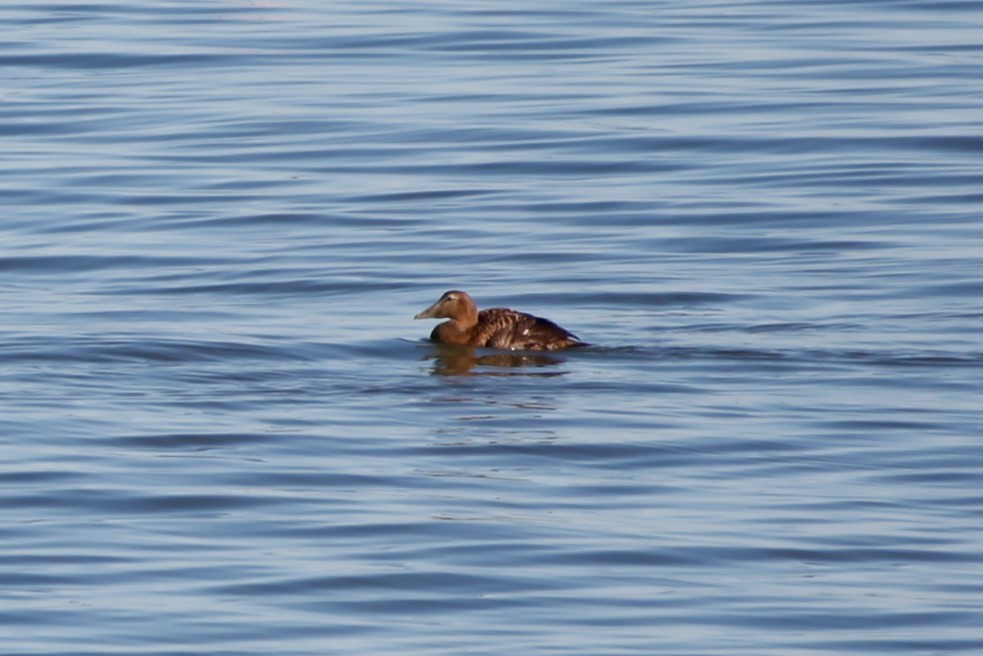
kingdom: Animalia
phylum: Chordata
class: Aves
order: Anseriformes
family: Anatidae
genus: Somateria
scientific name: Somateria mollissima
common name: Common eider
